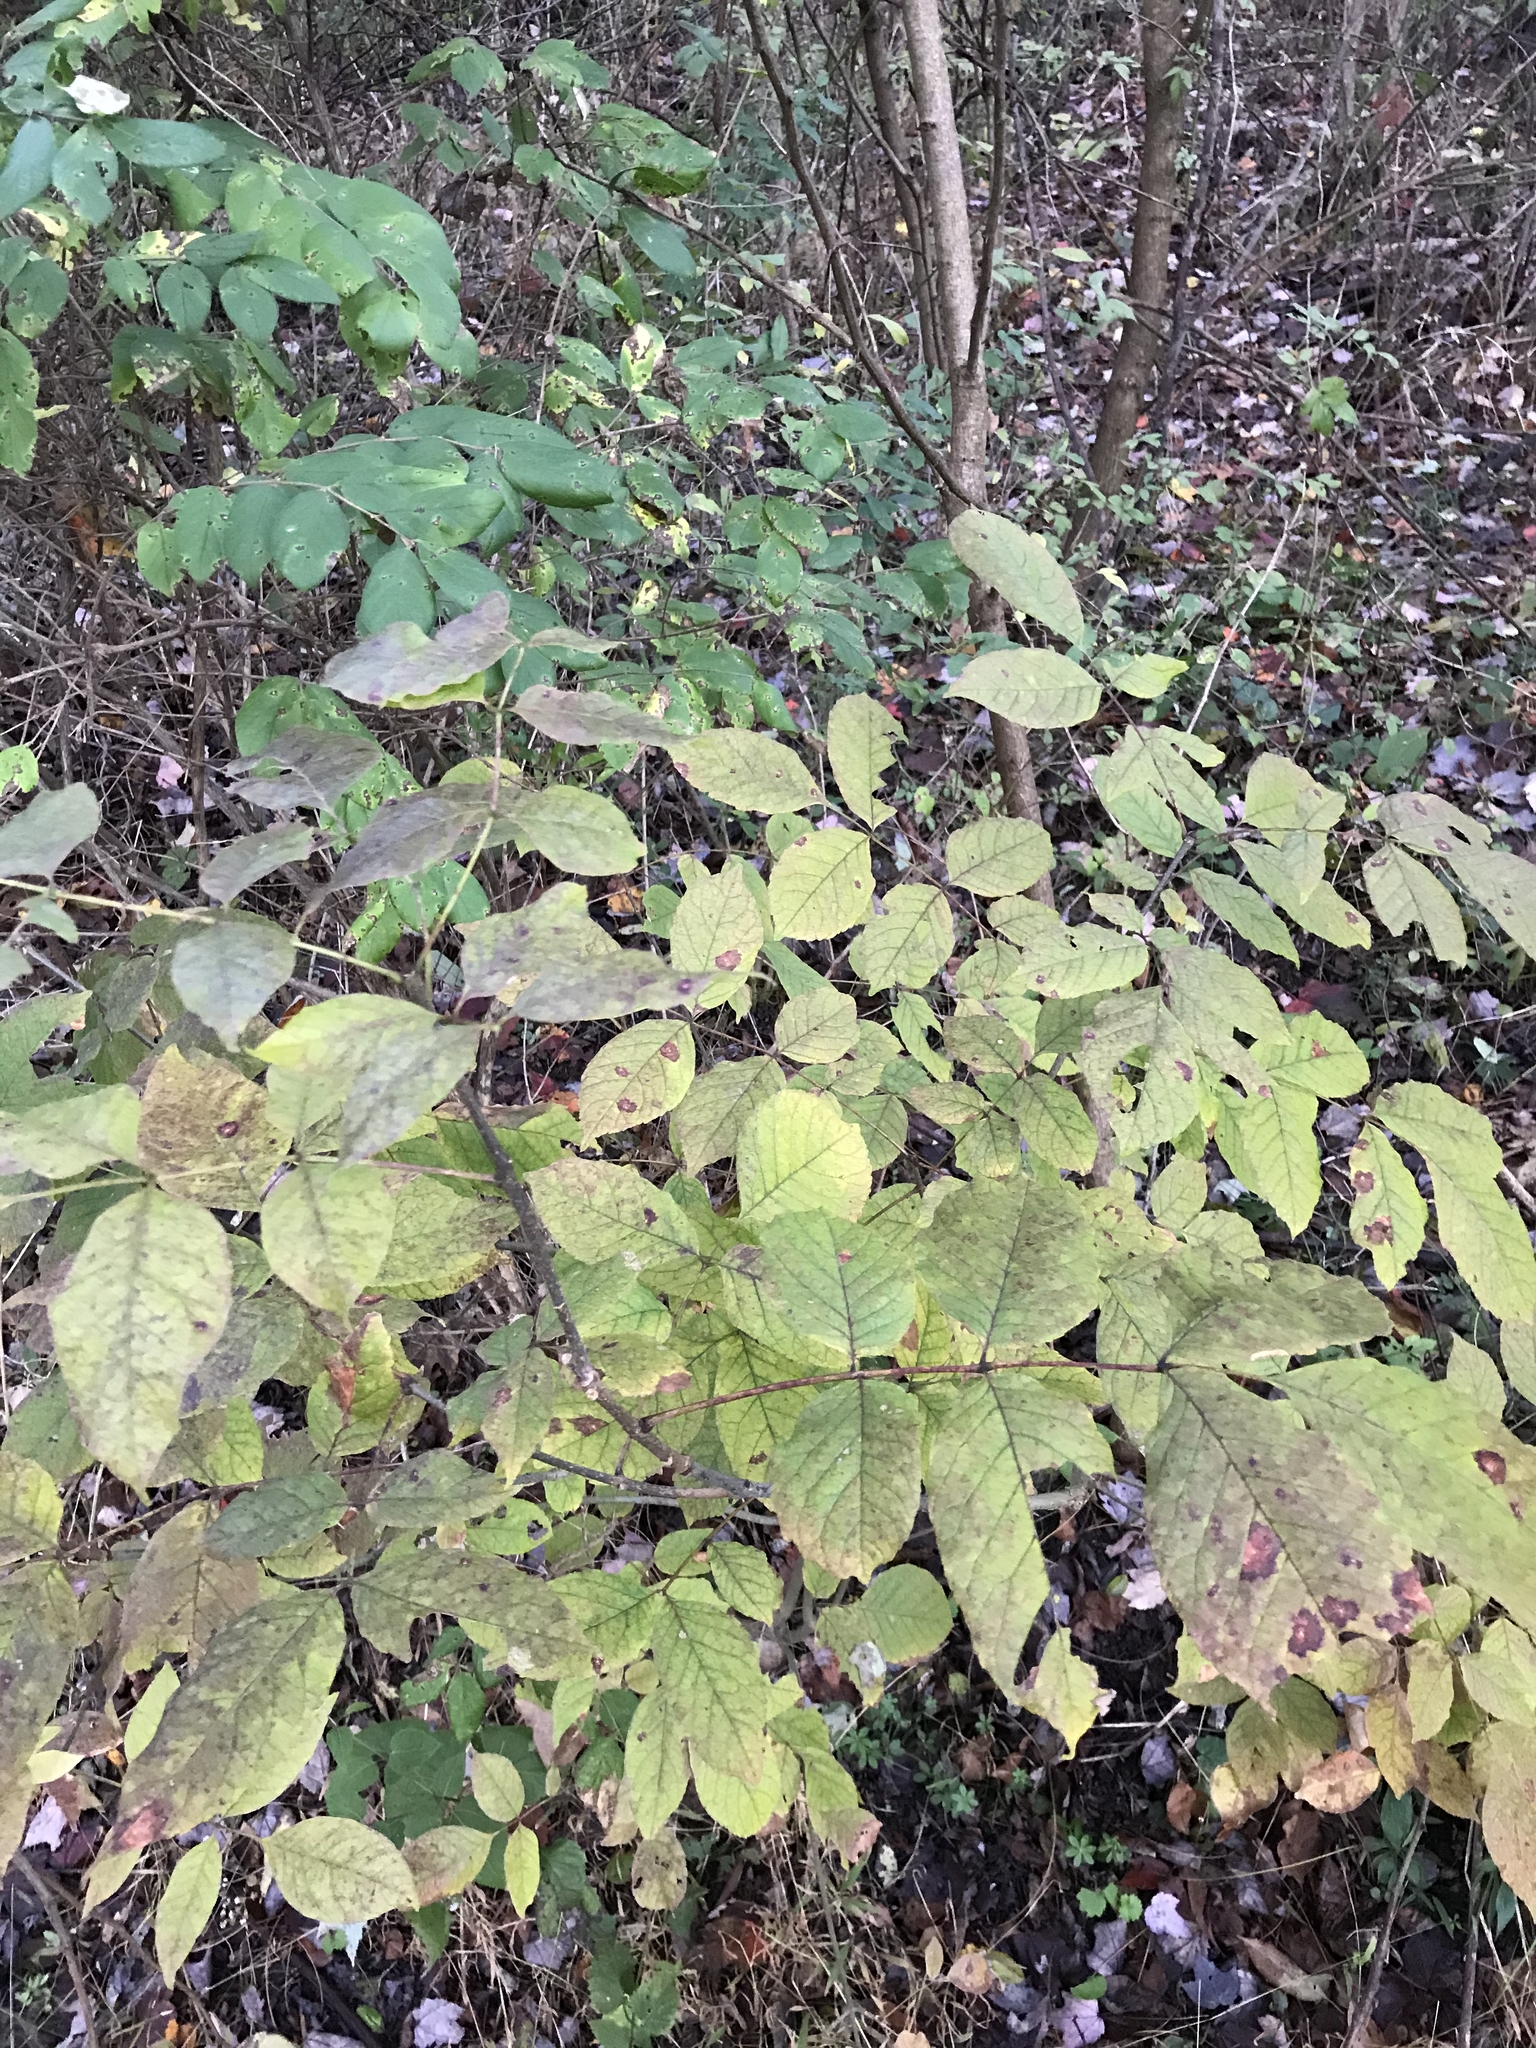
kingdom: Plantae
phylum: Tracheophyta
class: Magnoliopsida
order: Lamiales
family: Oleaceae
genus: Fraxinus
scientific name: Fraxinus americana
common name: White ash
